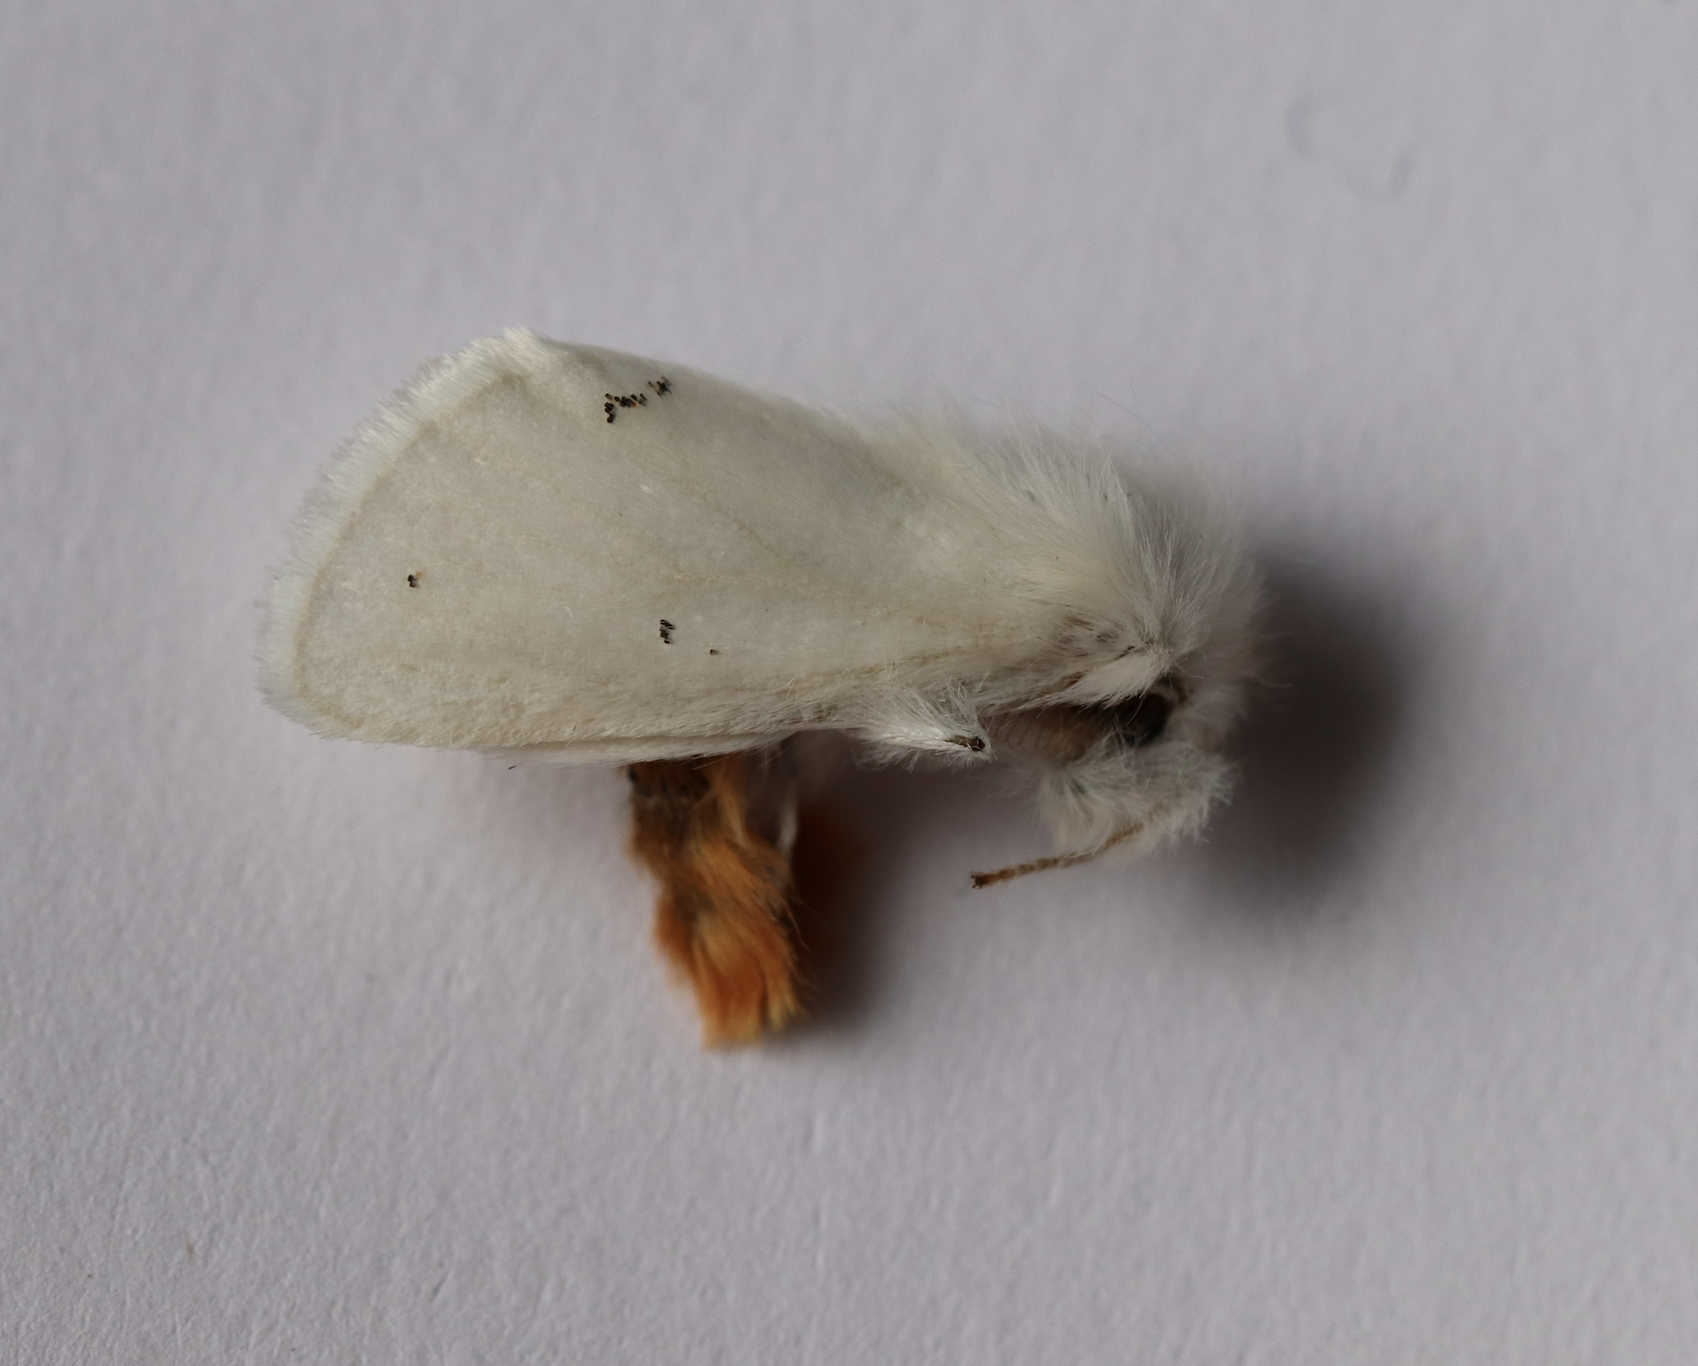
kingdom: Animalia
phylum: Arthropoda
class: Insecta
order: Lepidoptera
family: Erebidae
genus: Euproctis
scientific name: Euproctis chrysorrhoea
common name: Brown-tail
